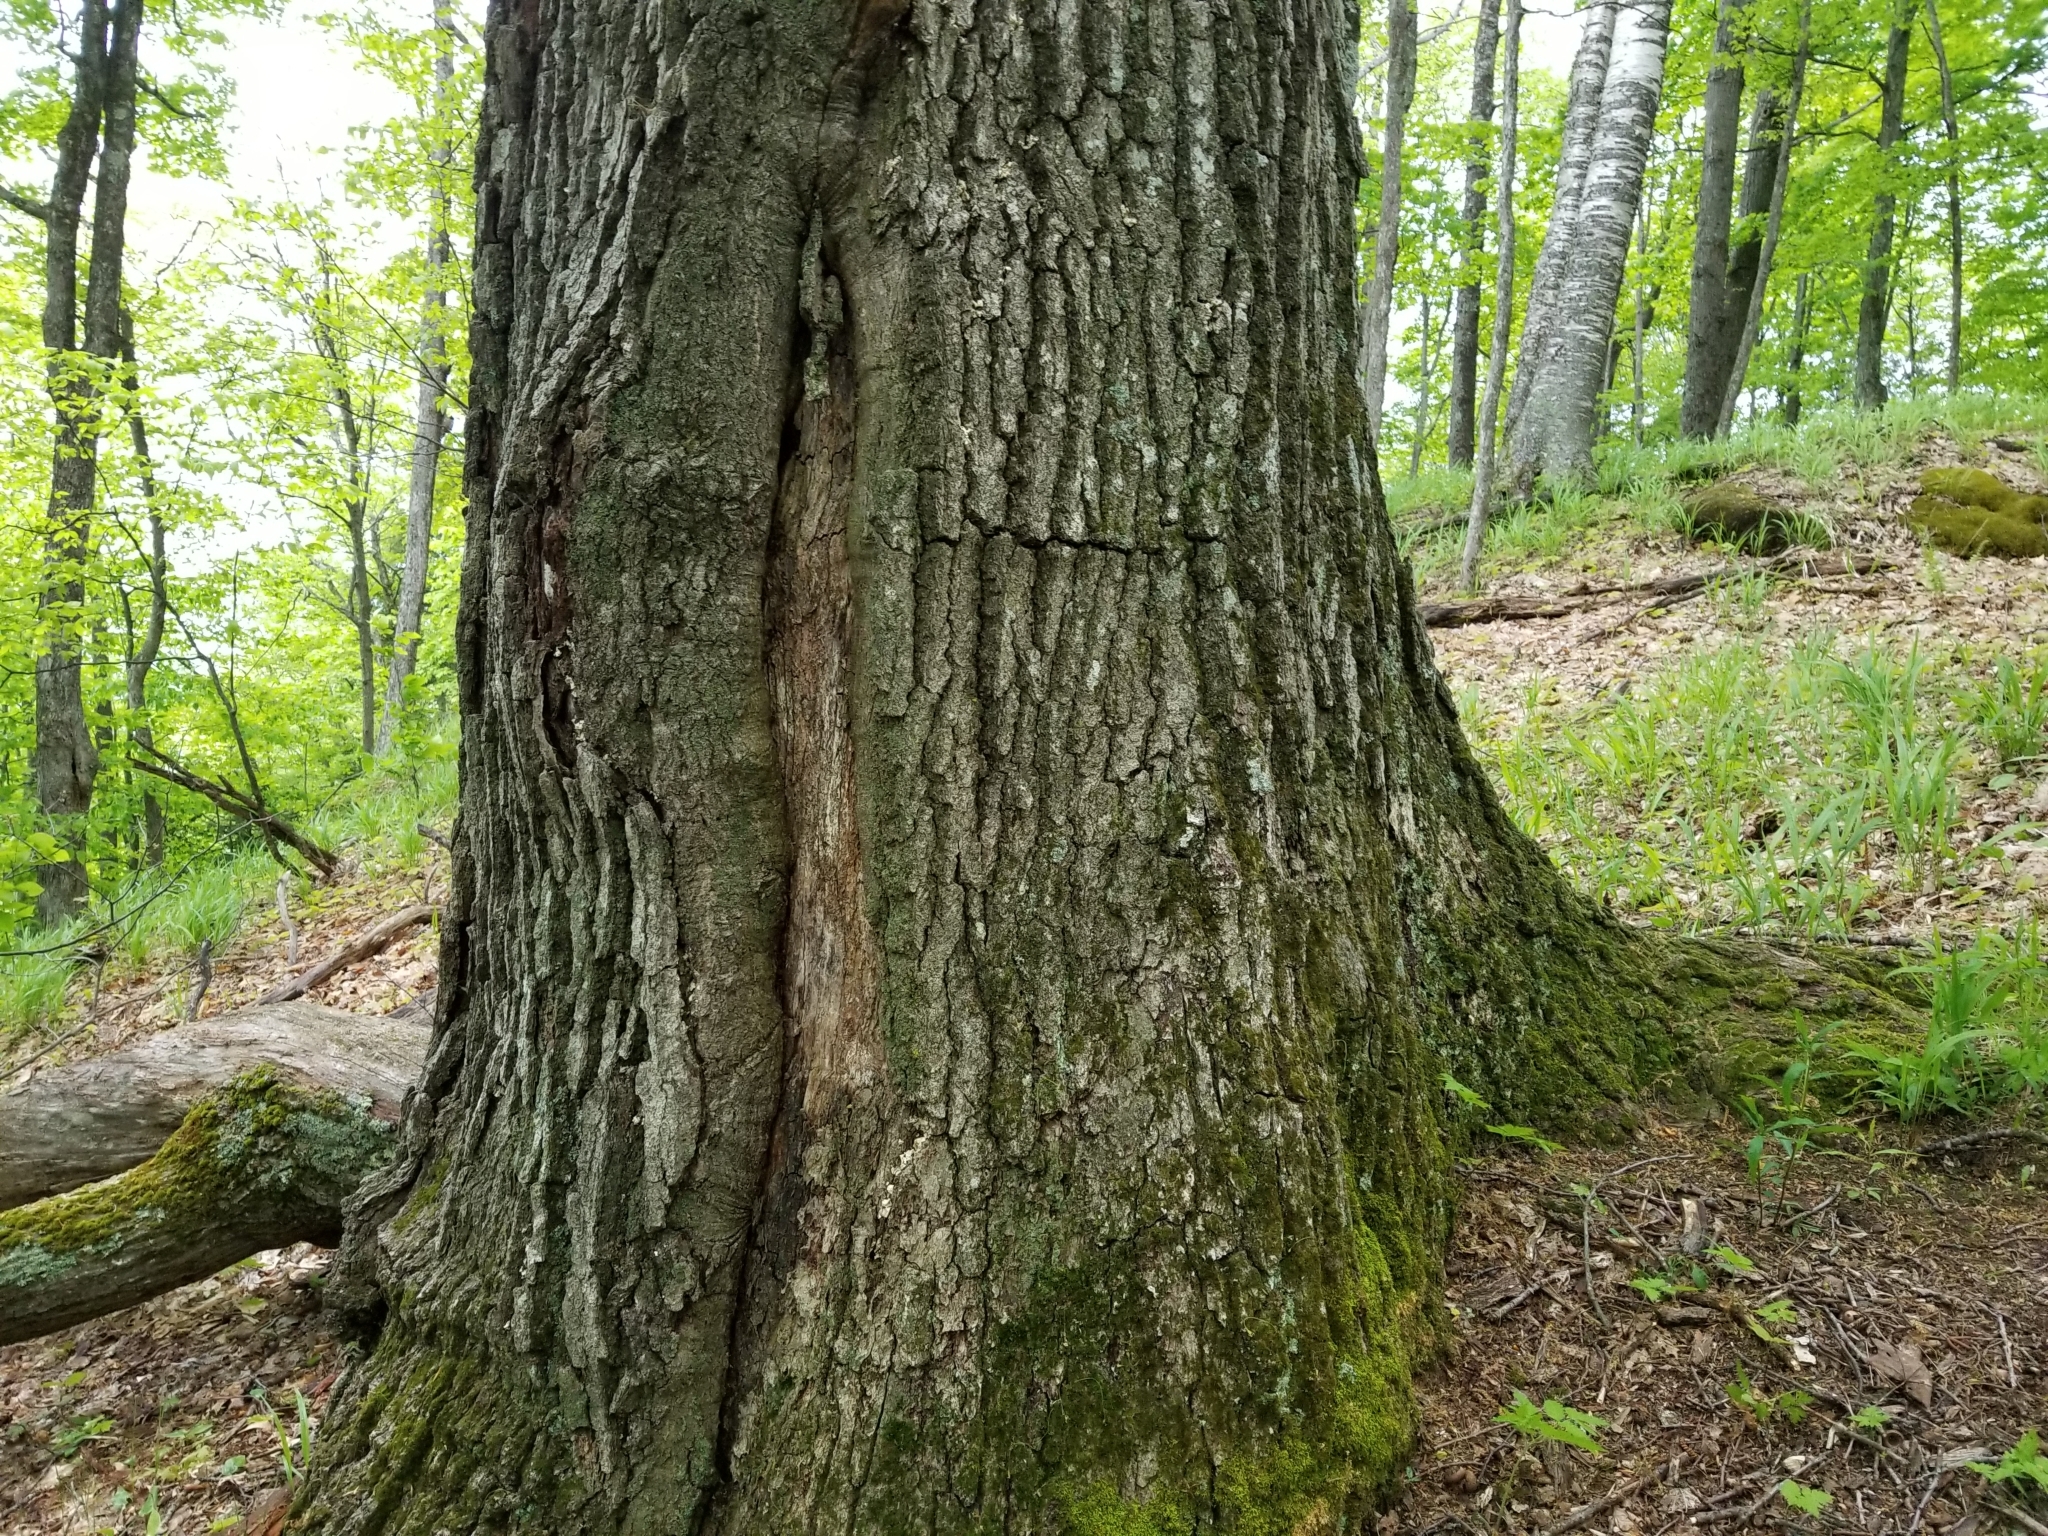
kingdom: Plantae
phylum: Tracheophyta
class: Magnoliopsida
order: Fagales
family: Fagaceae
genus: Quercus
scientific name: Quercus rubra
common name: Red oak
